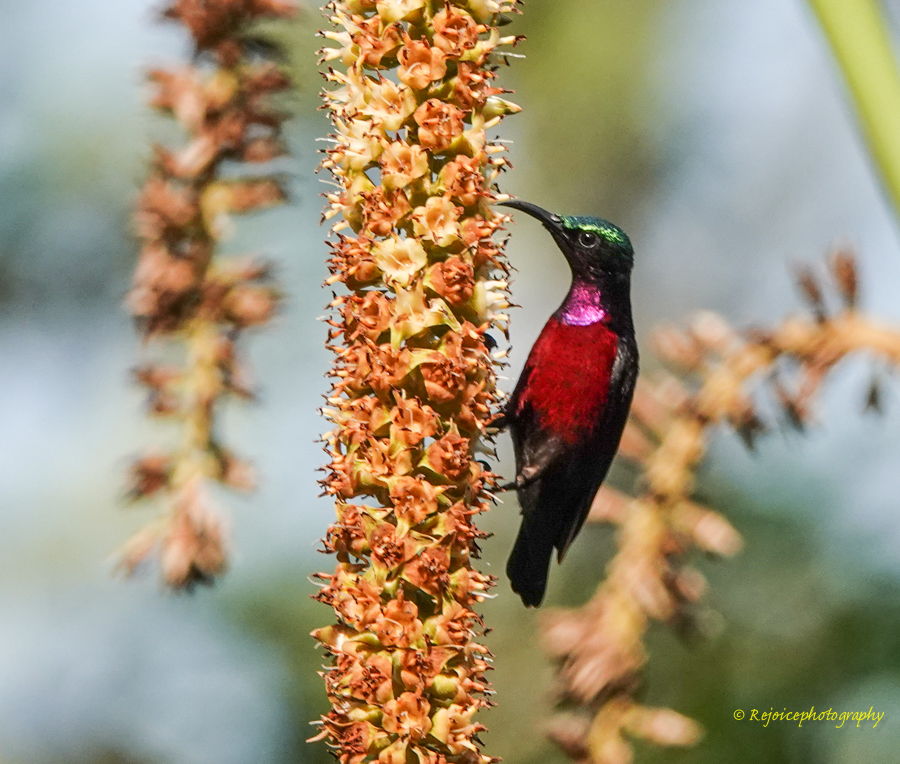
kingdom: Animalia
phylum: Chordata
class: Aves
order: Passeriformes
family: Nectariniidae
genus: Leptocoma
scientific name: Leptocoma brasiliana
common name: Van hasselt's sunbird
